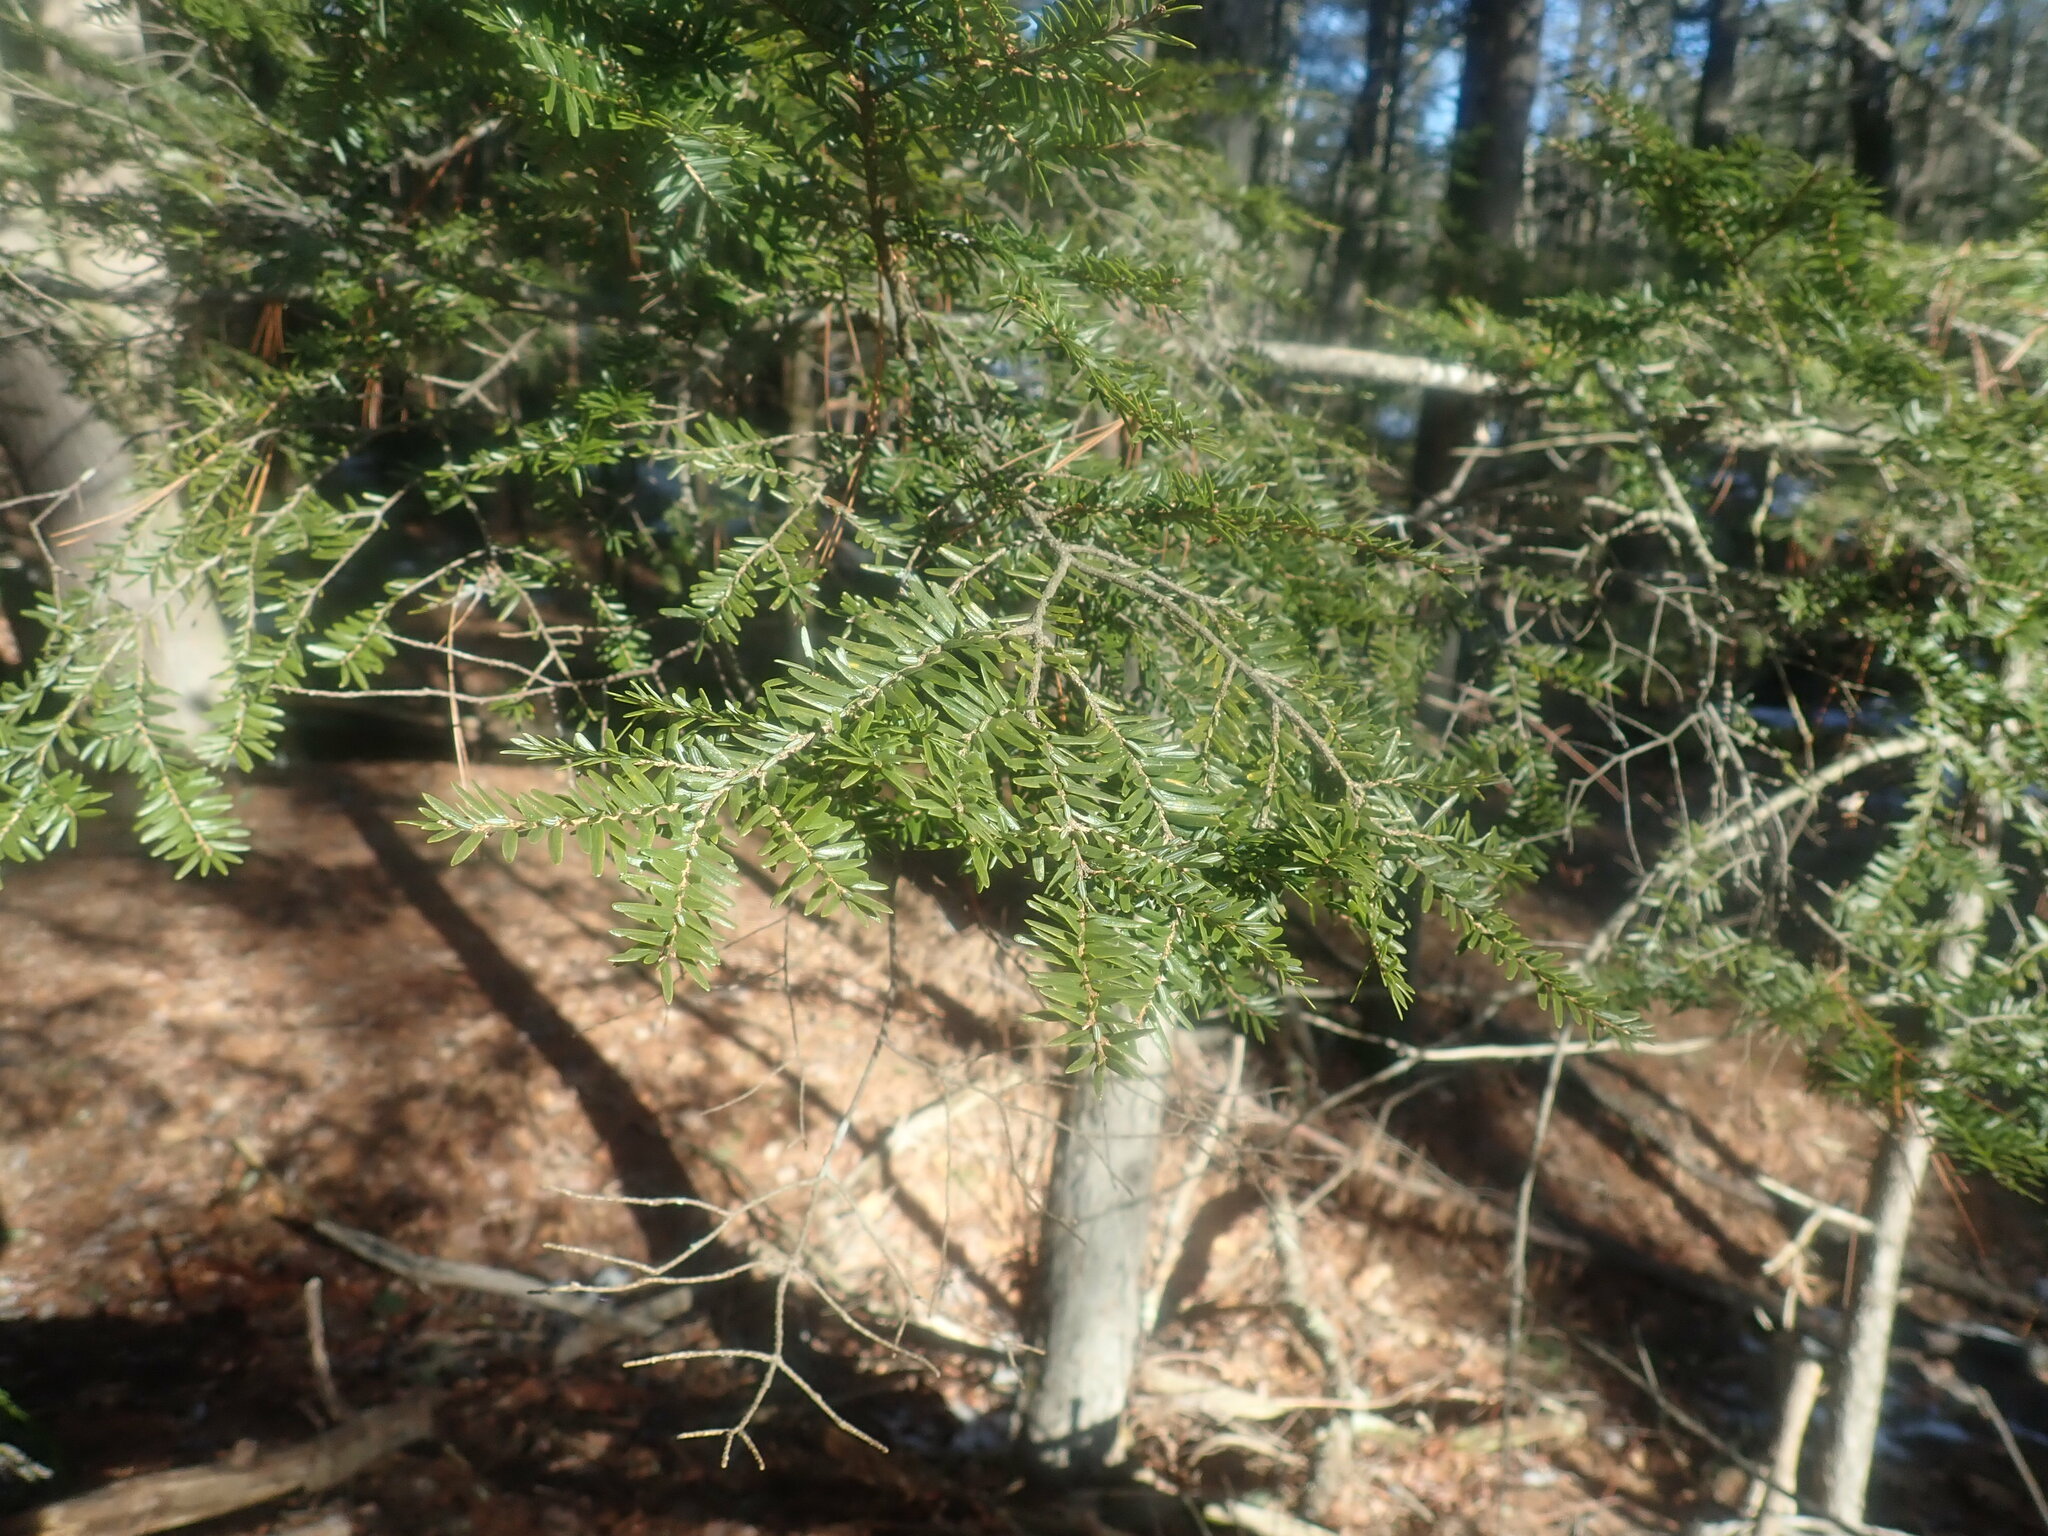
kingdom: Plantae
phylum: Tracheophyta
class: Pinopsida
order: Pinales
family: Pinaceae
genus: Tsuga
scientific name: Tsuga canadensis
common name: Eastern hemlock
